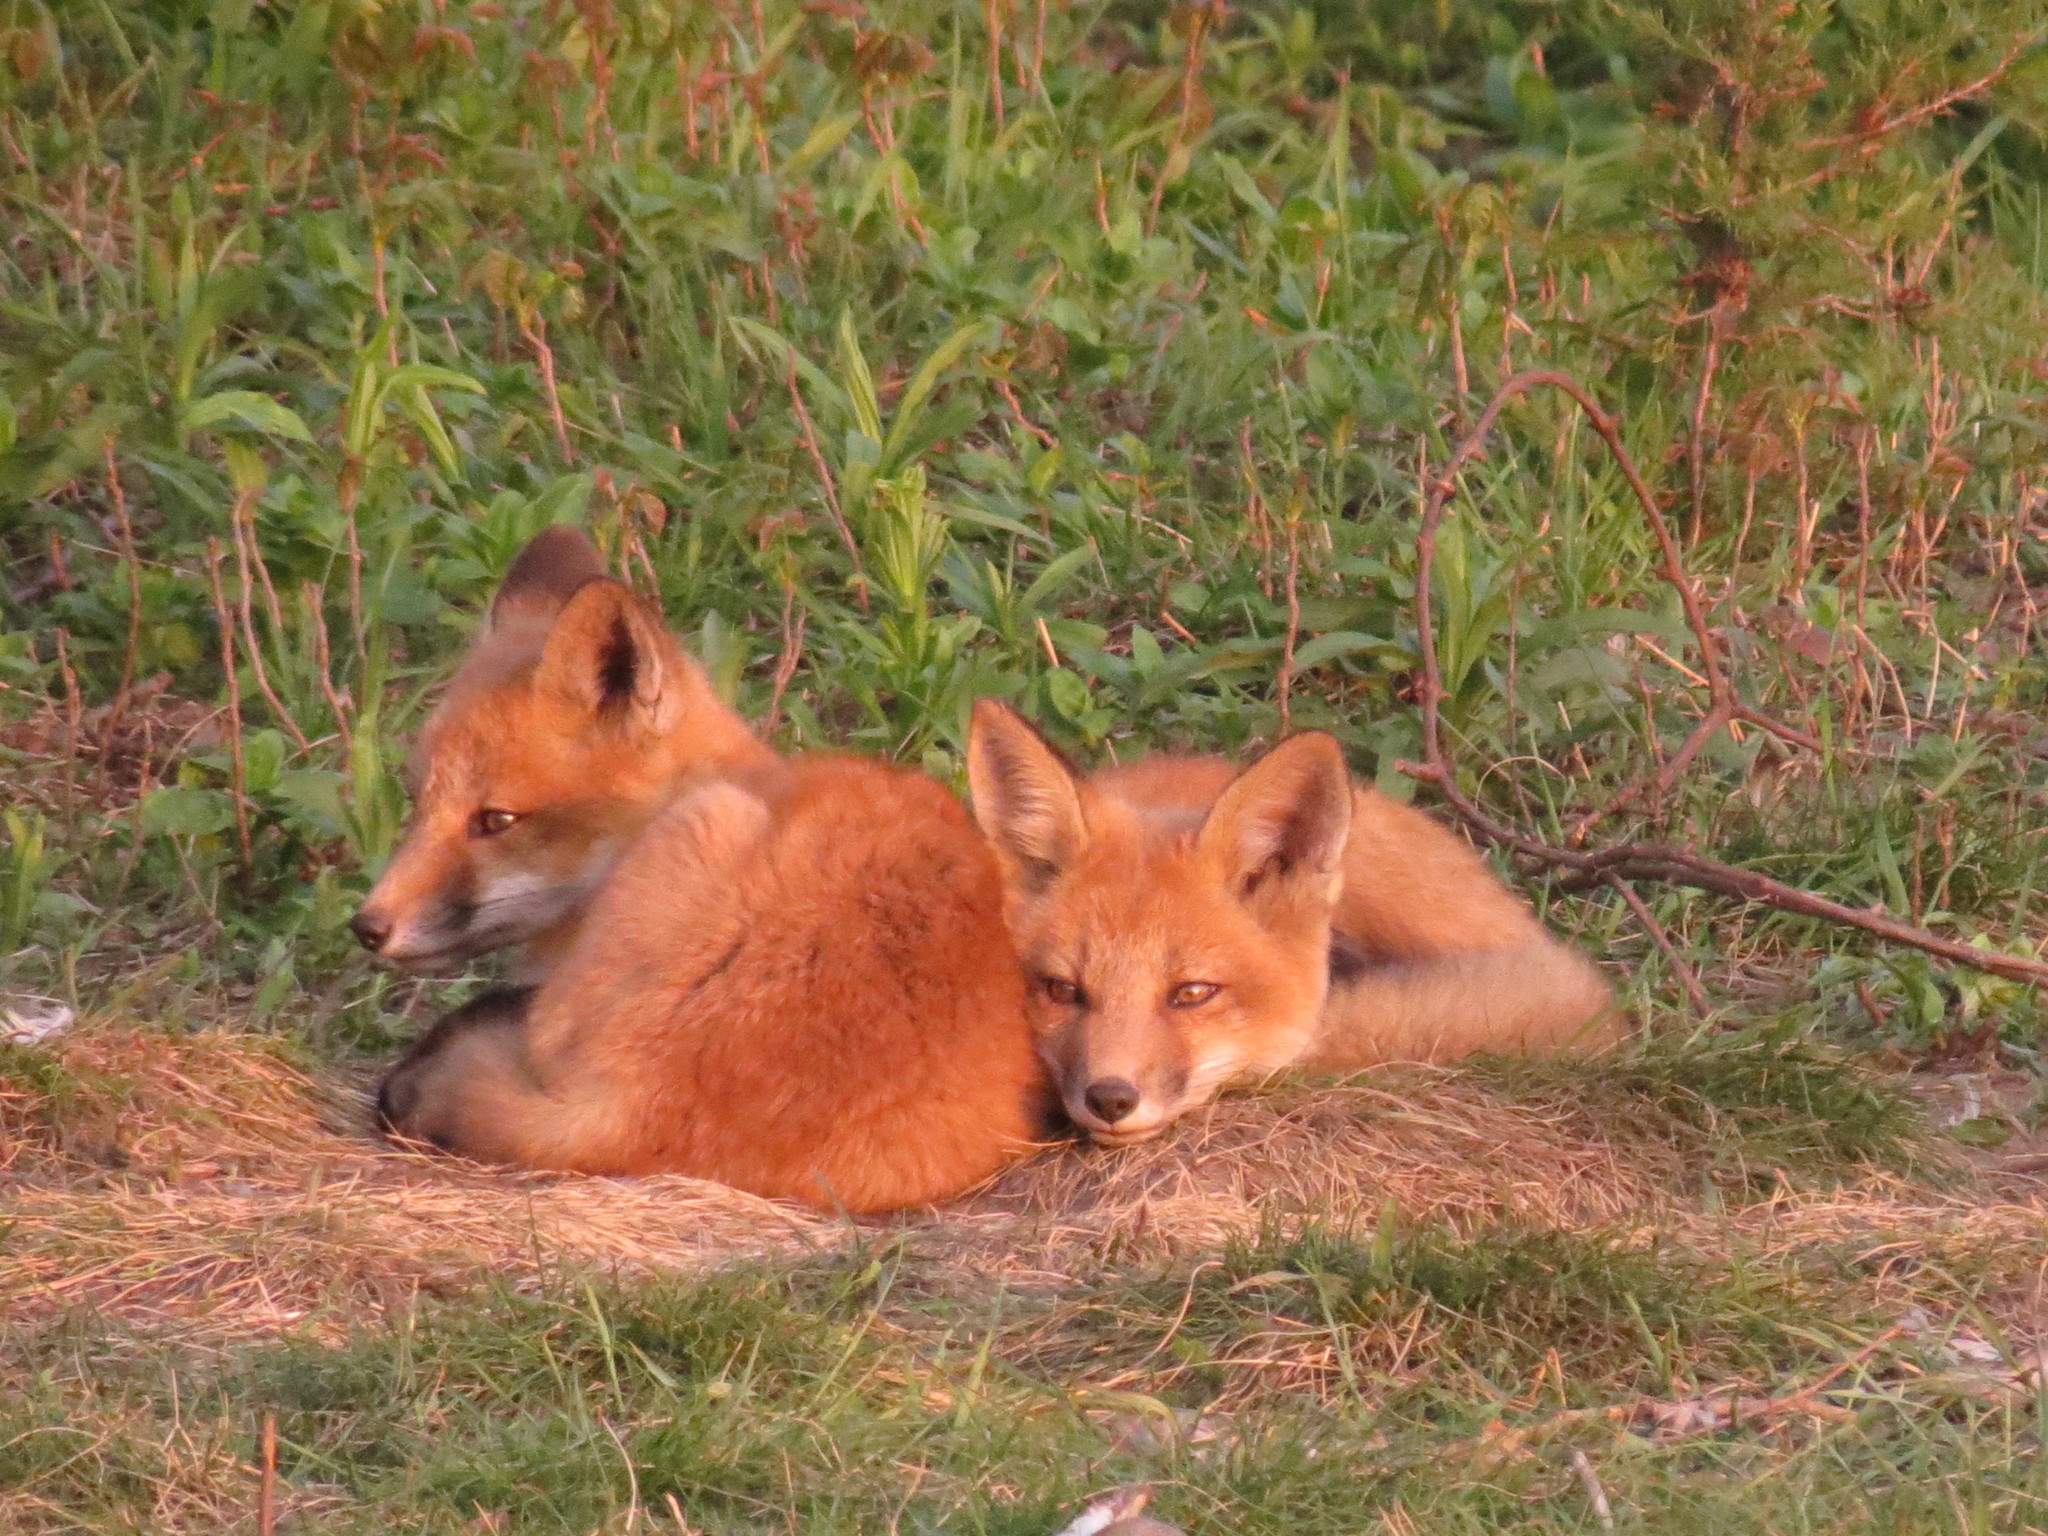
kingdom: Animalia
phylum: Chordata
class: Mammalia
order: Carnivora
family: Canidae
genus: Vulpes
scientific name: Vulpes vulpes
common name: Red fox
